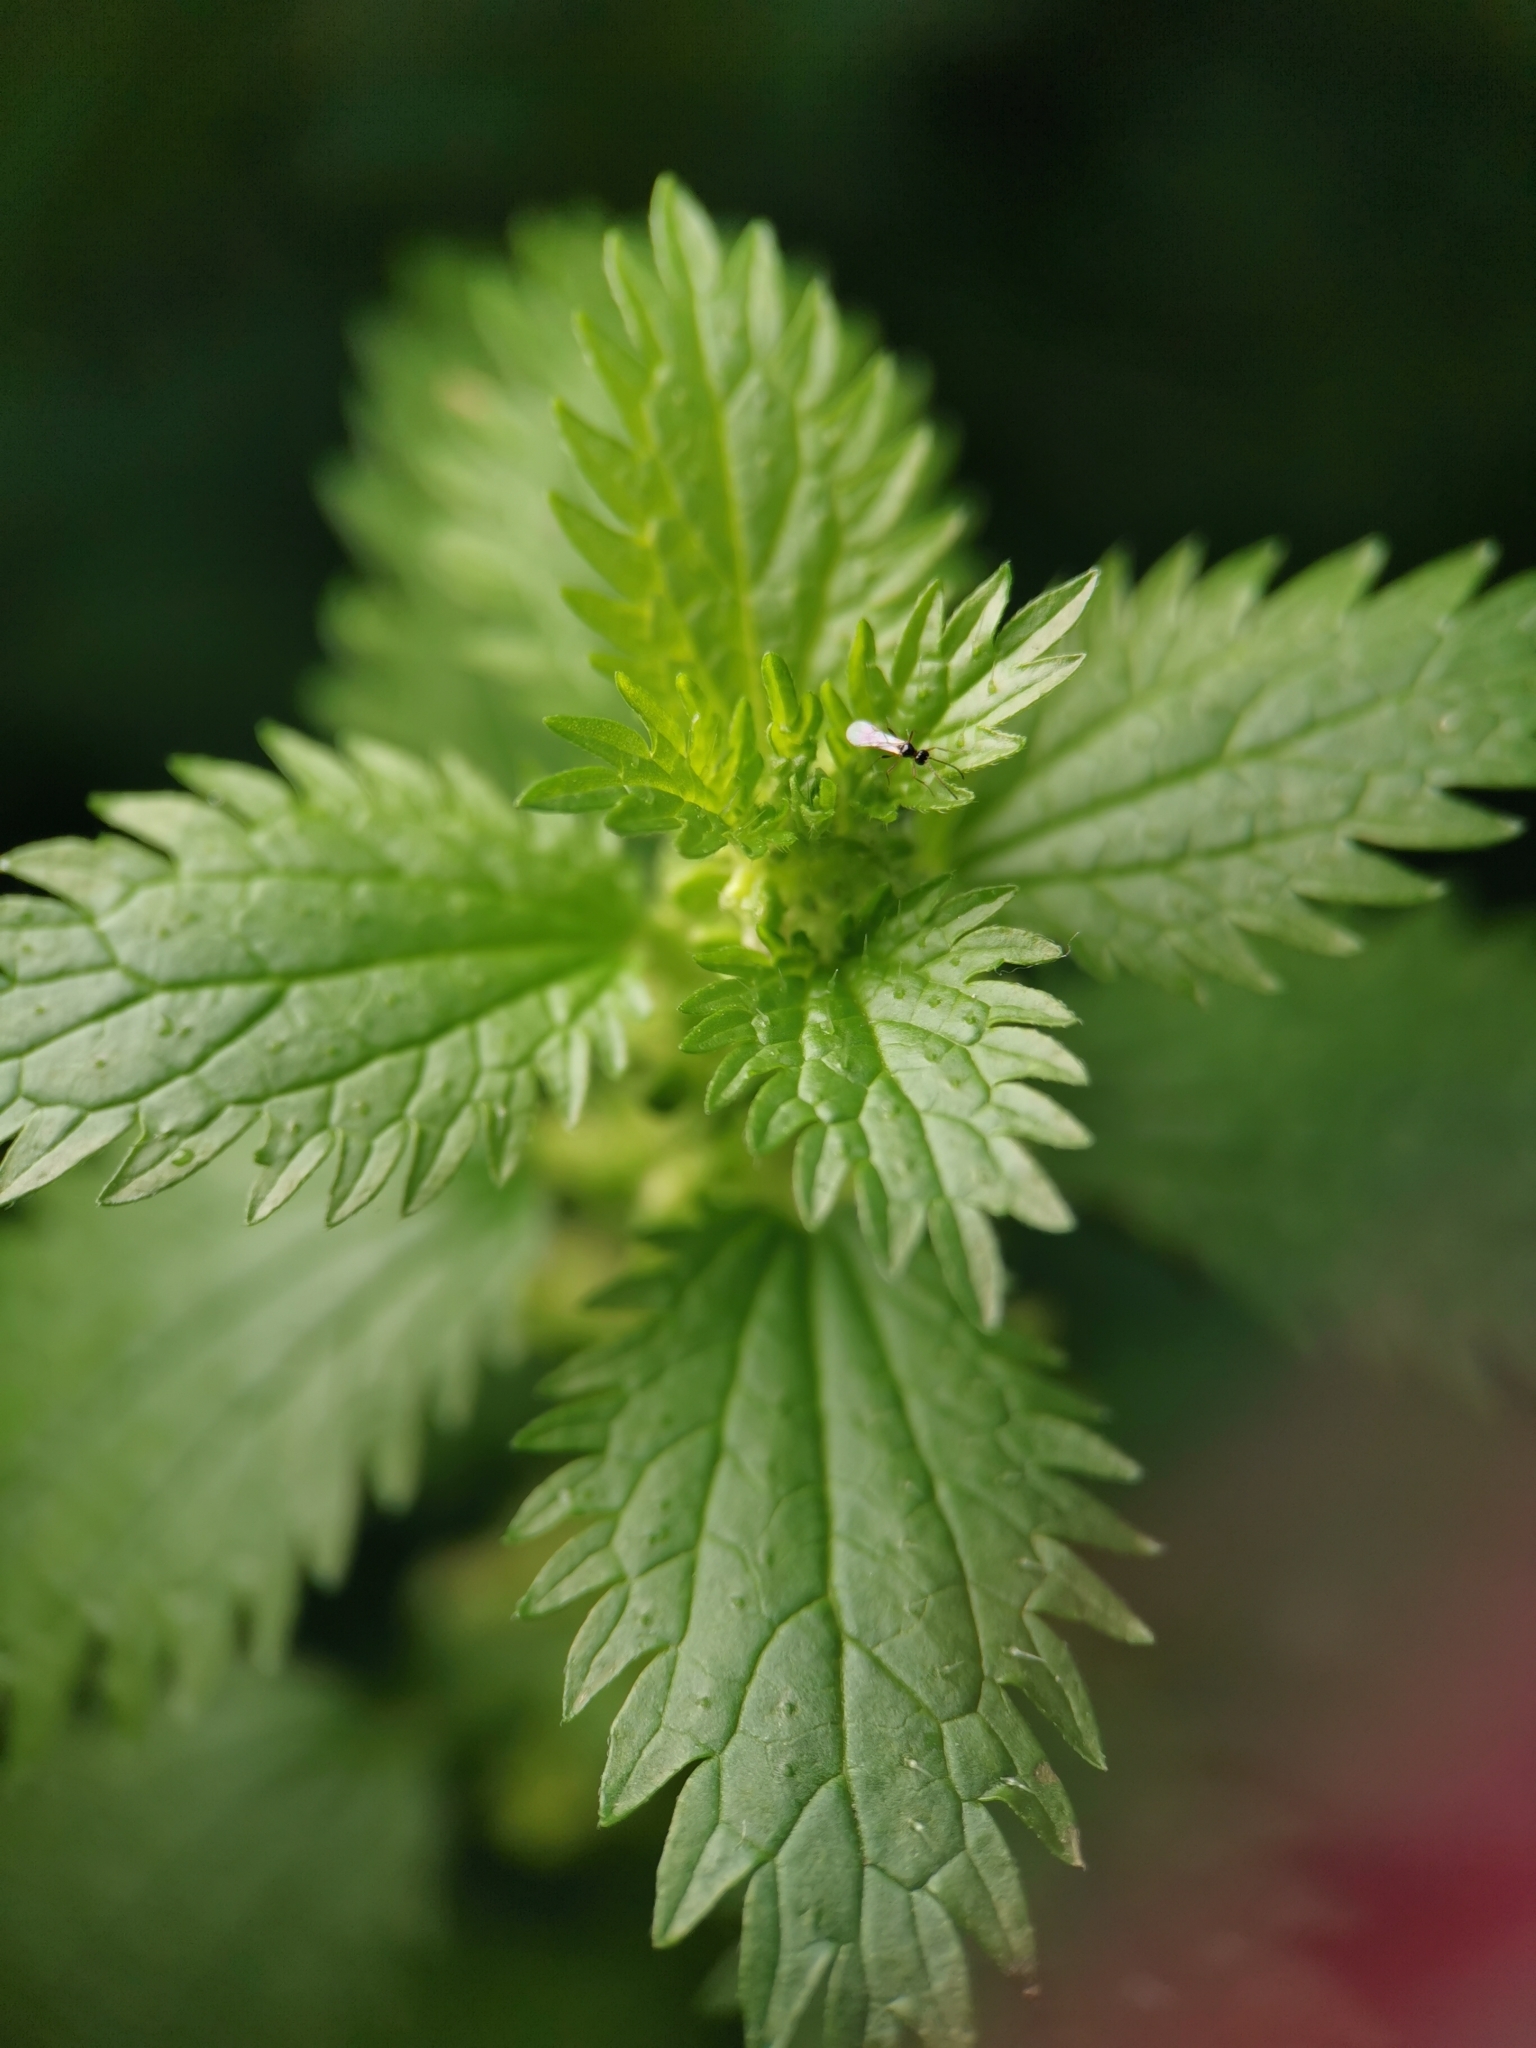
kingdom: Plantae
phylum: Tracheophyta
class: Magnoliopsida
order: Rosales
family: Urticaceae
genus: Urtica
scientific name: Urtica urens
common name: Dwarf nettle
